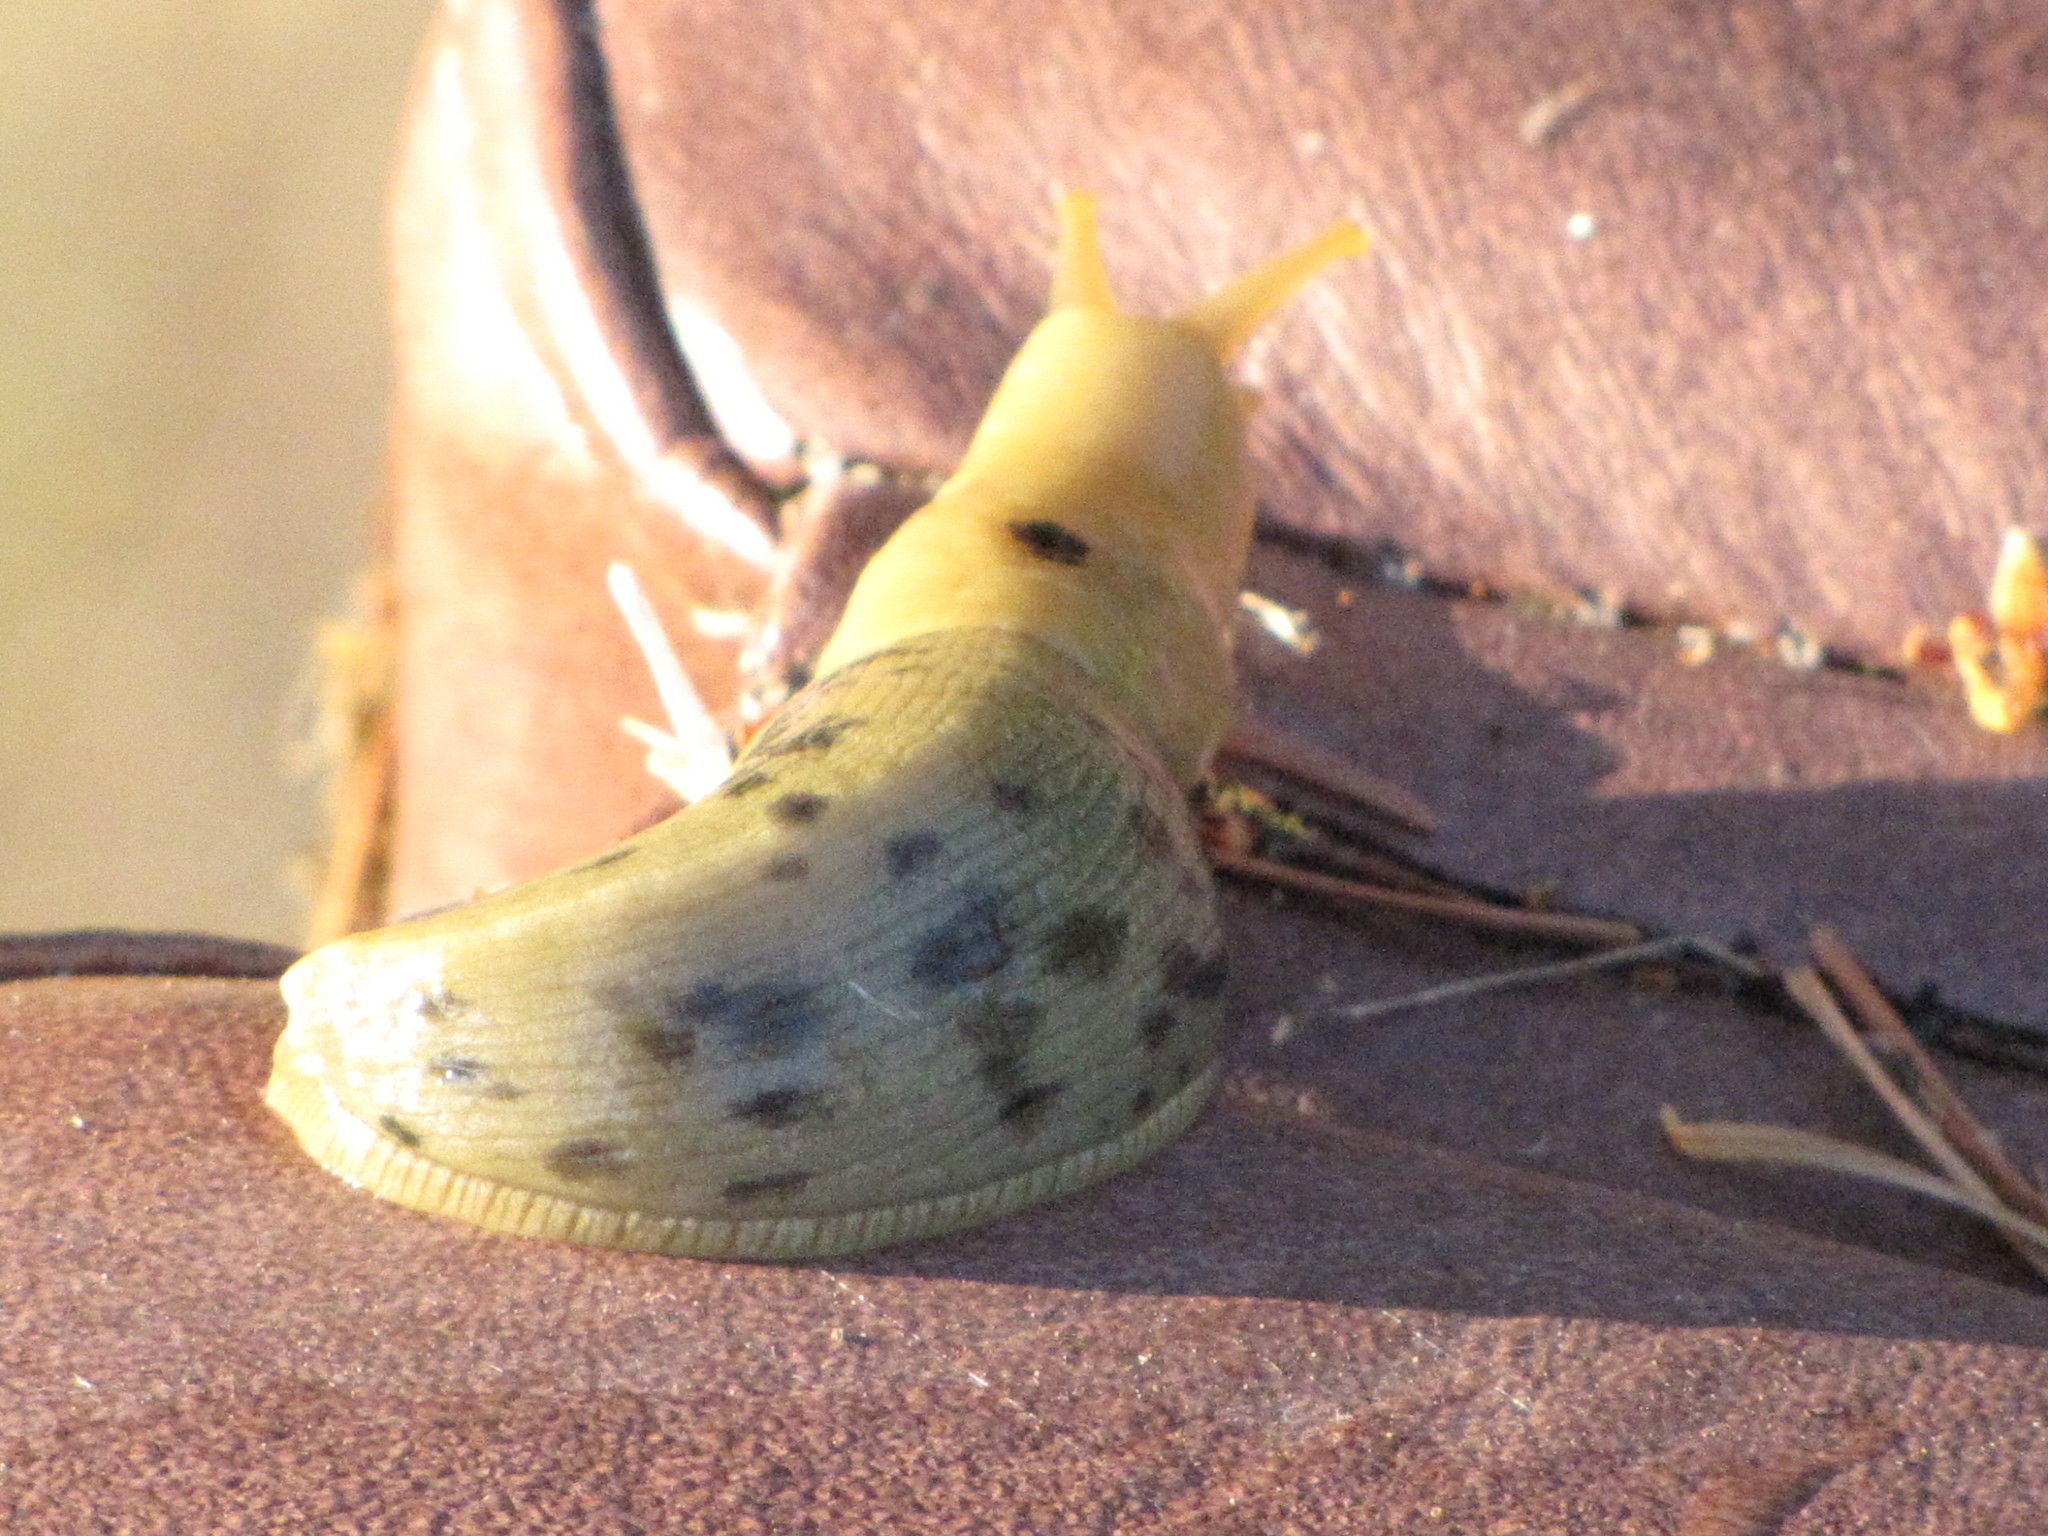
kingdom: Animalia
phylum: Mollusca
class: Gastropoda
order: Stylommatophora
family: Ariolimacidae
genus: Ariolimax
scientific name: Ariolimax columbianus
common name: Pacific banana slug
